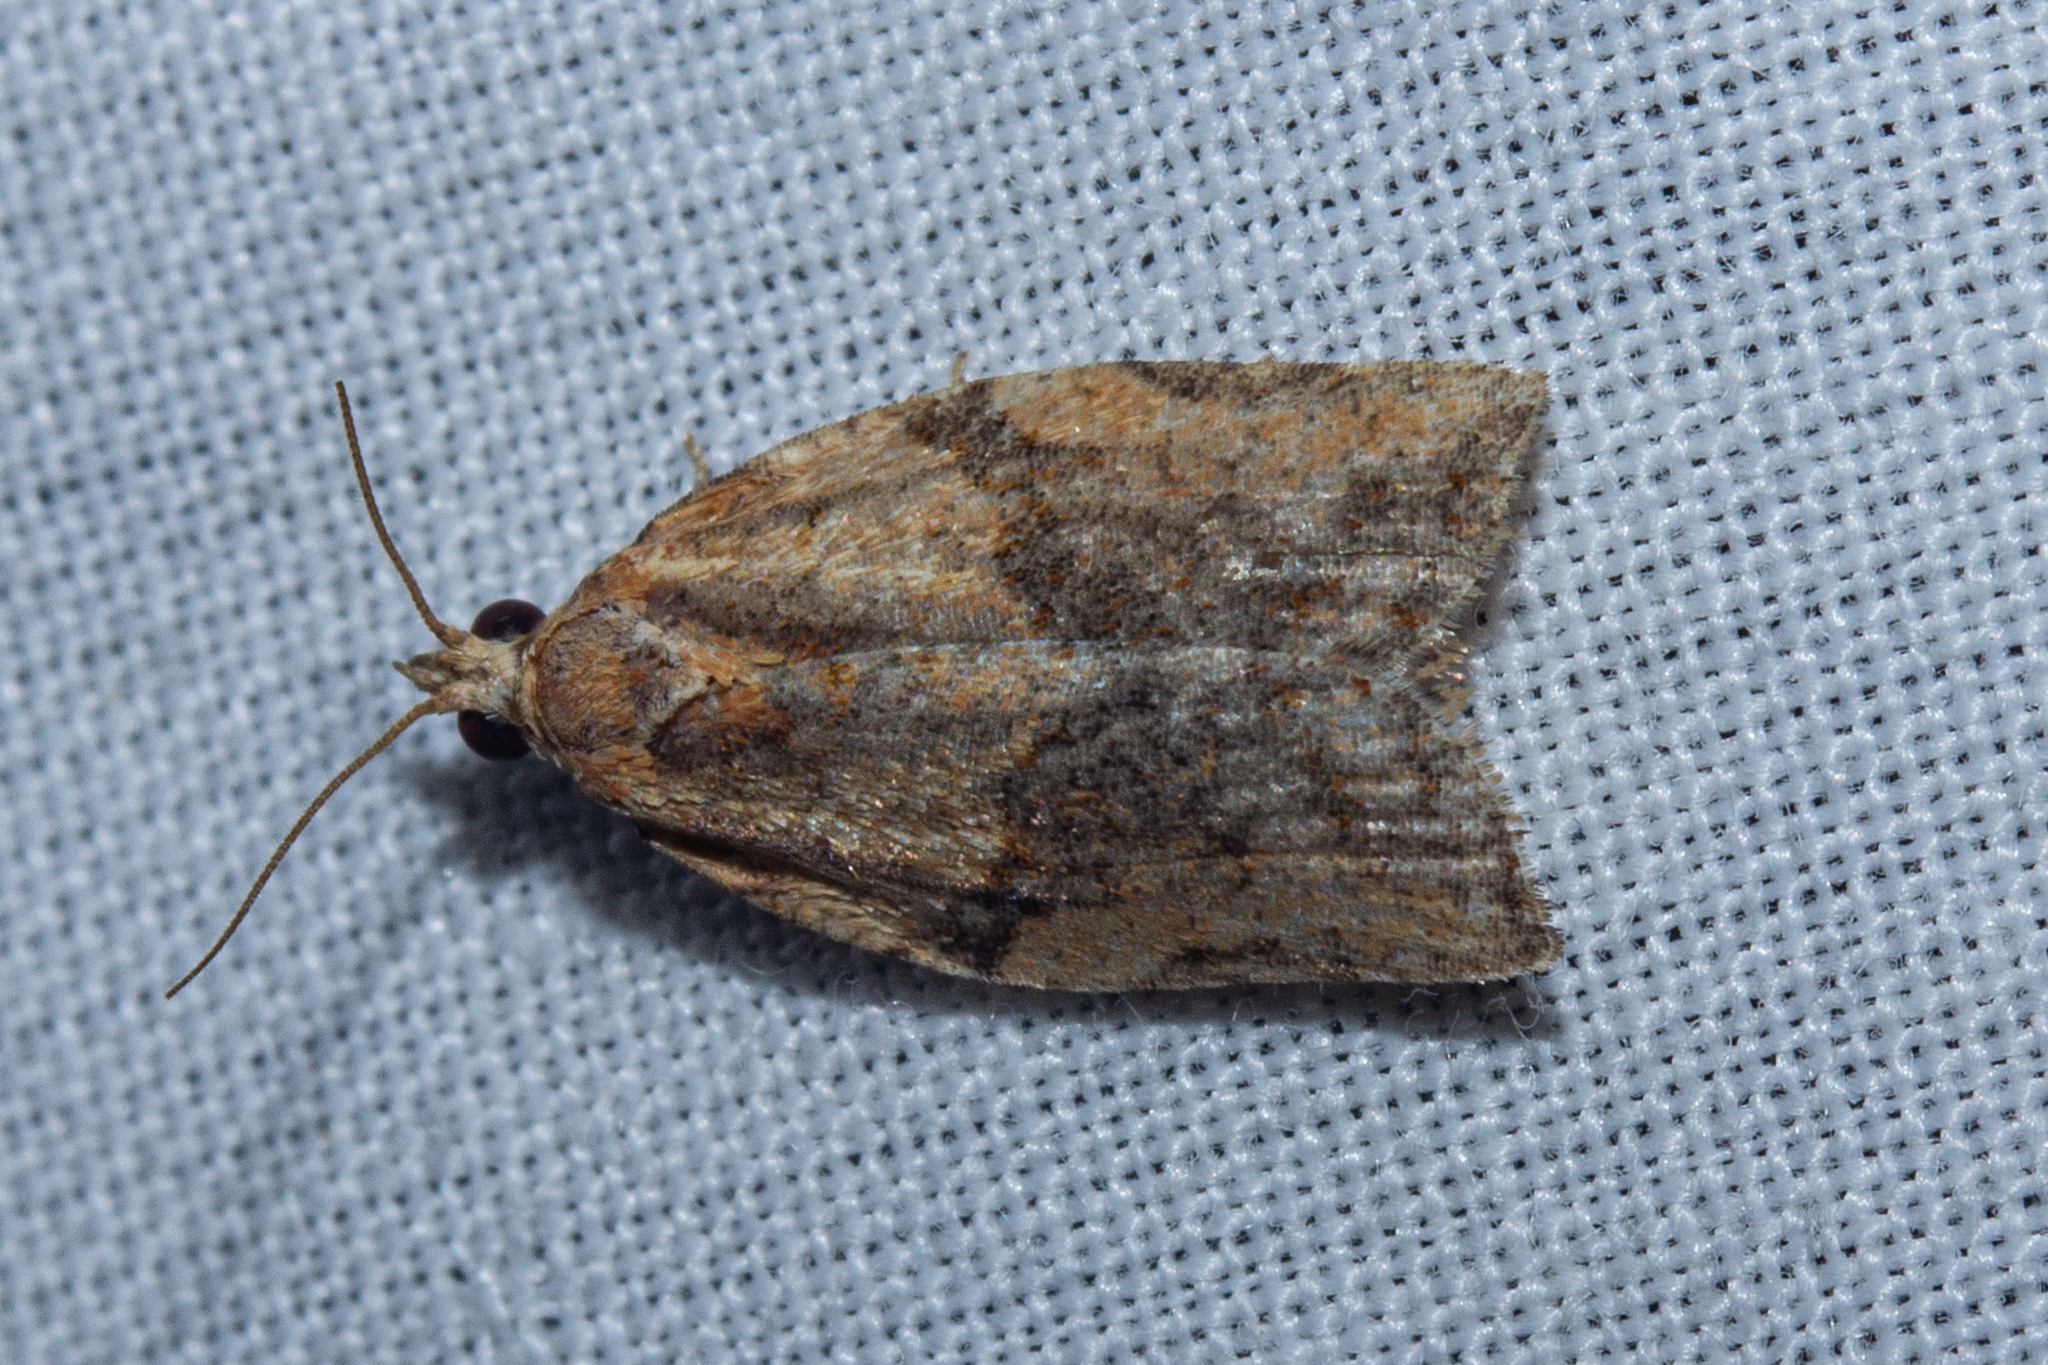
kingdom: Animalia
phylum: Arthropoda
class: Insecta
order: Lepidoptera
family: Tortricidae
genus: Epiphyas
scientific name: Epiphyas postvittana
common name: Light brown apple moth
